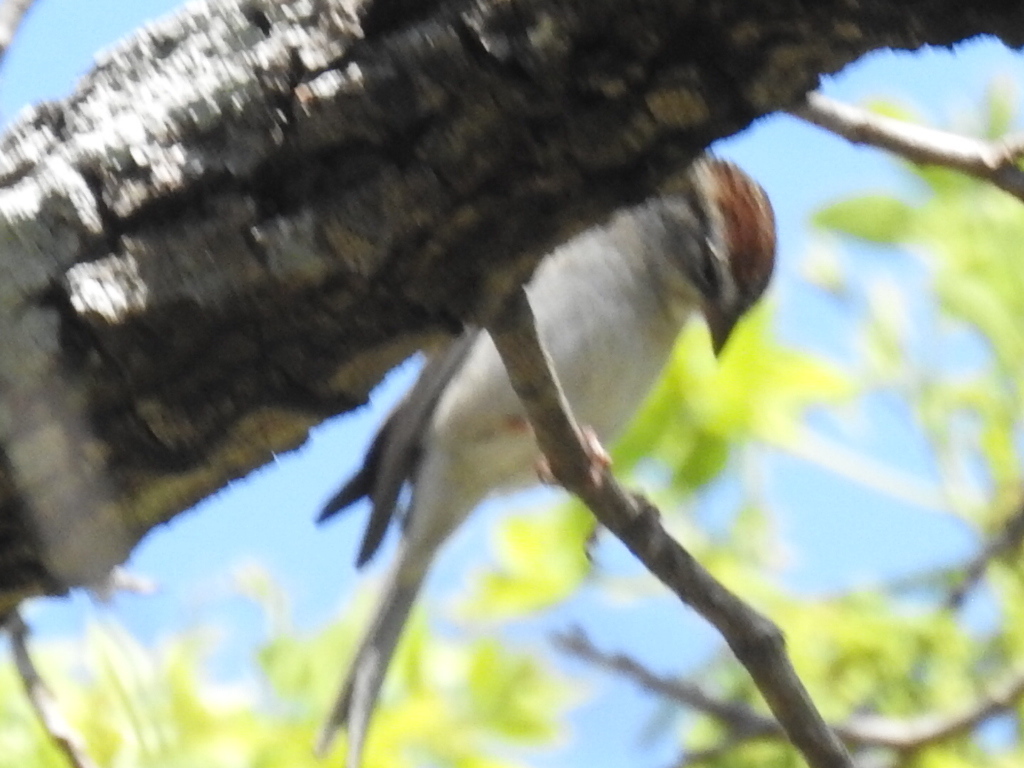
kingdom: Animalia
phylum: Chordata
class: Aves
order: Passeriformes
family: Passerellidae
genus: Spizella
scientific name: Spizella passerina
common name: Chipping sparrow
